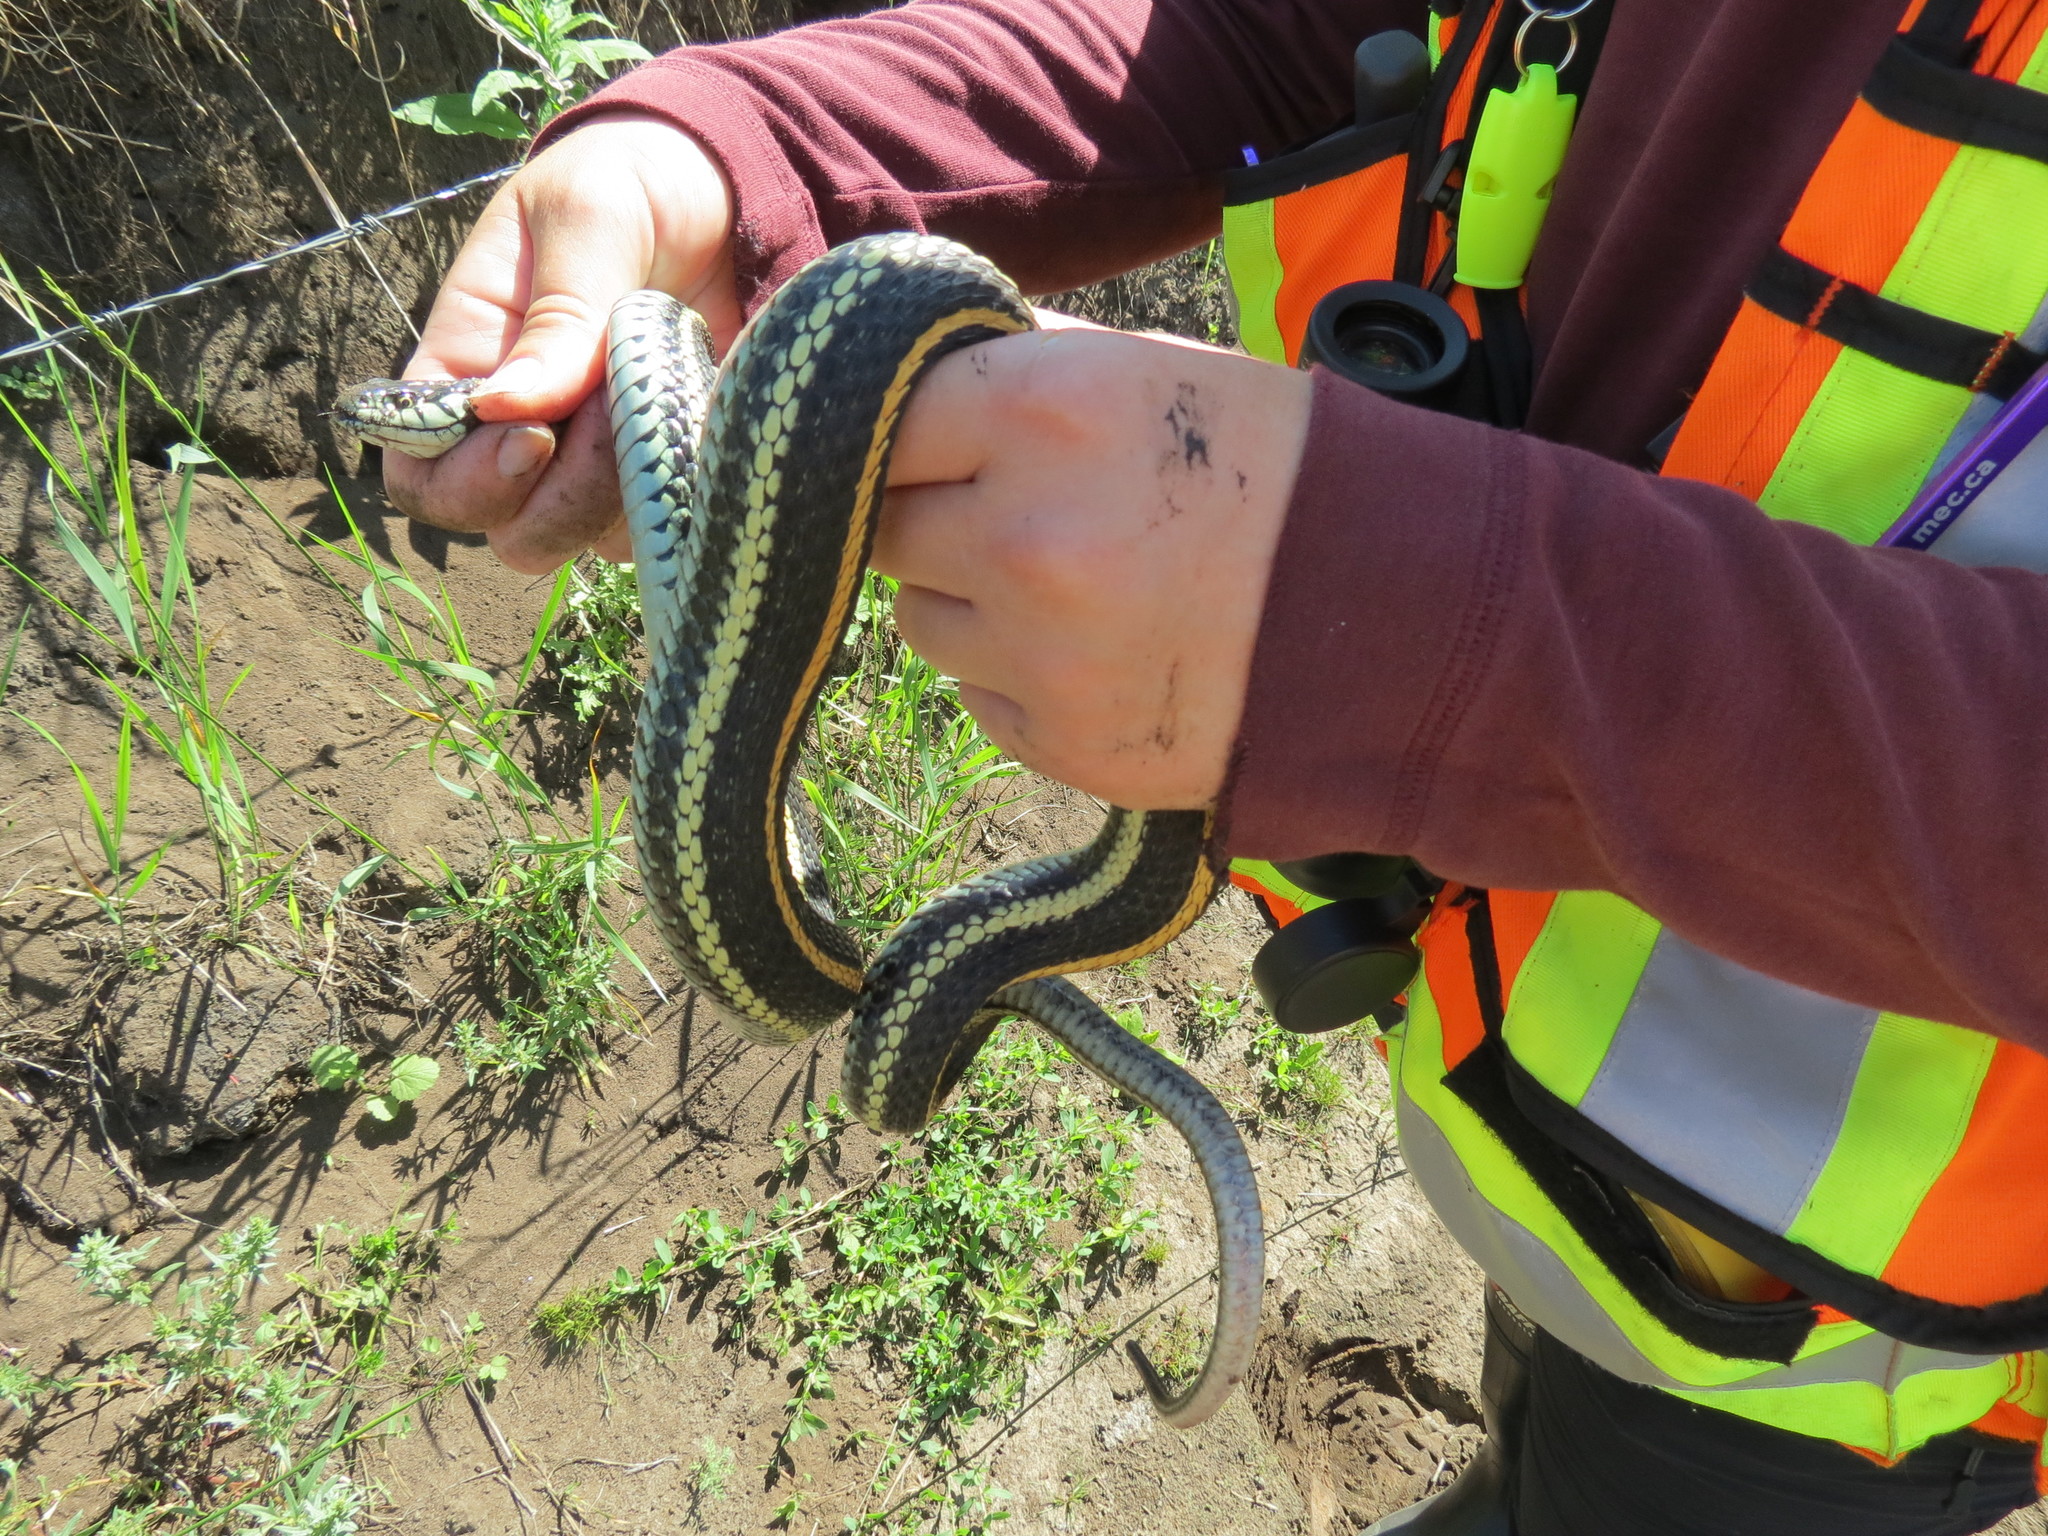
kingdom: Animalia
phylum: Chordata
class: Squamata
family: Colubridae
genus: Thamnophis
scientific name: Thamnophis radix
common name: Plains garter snake
